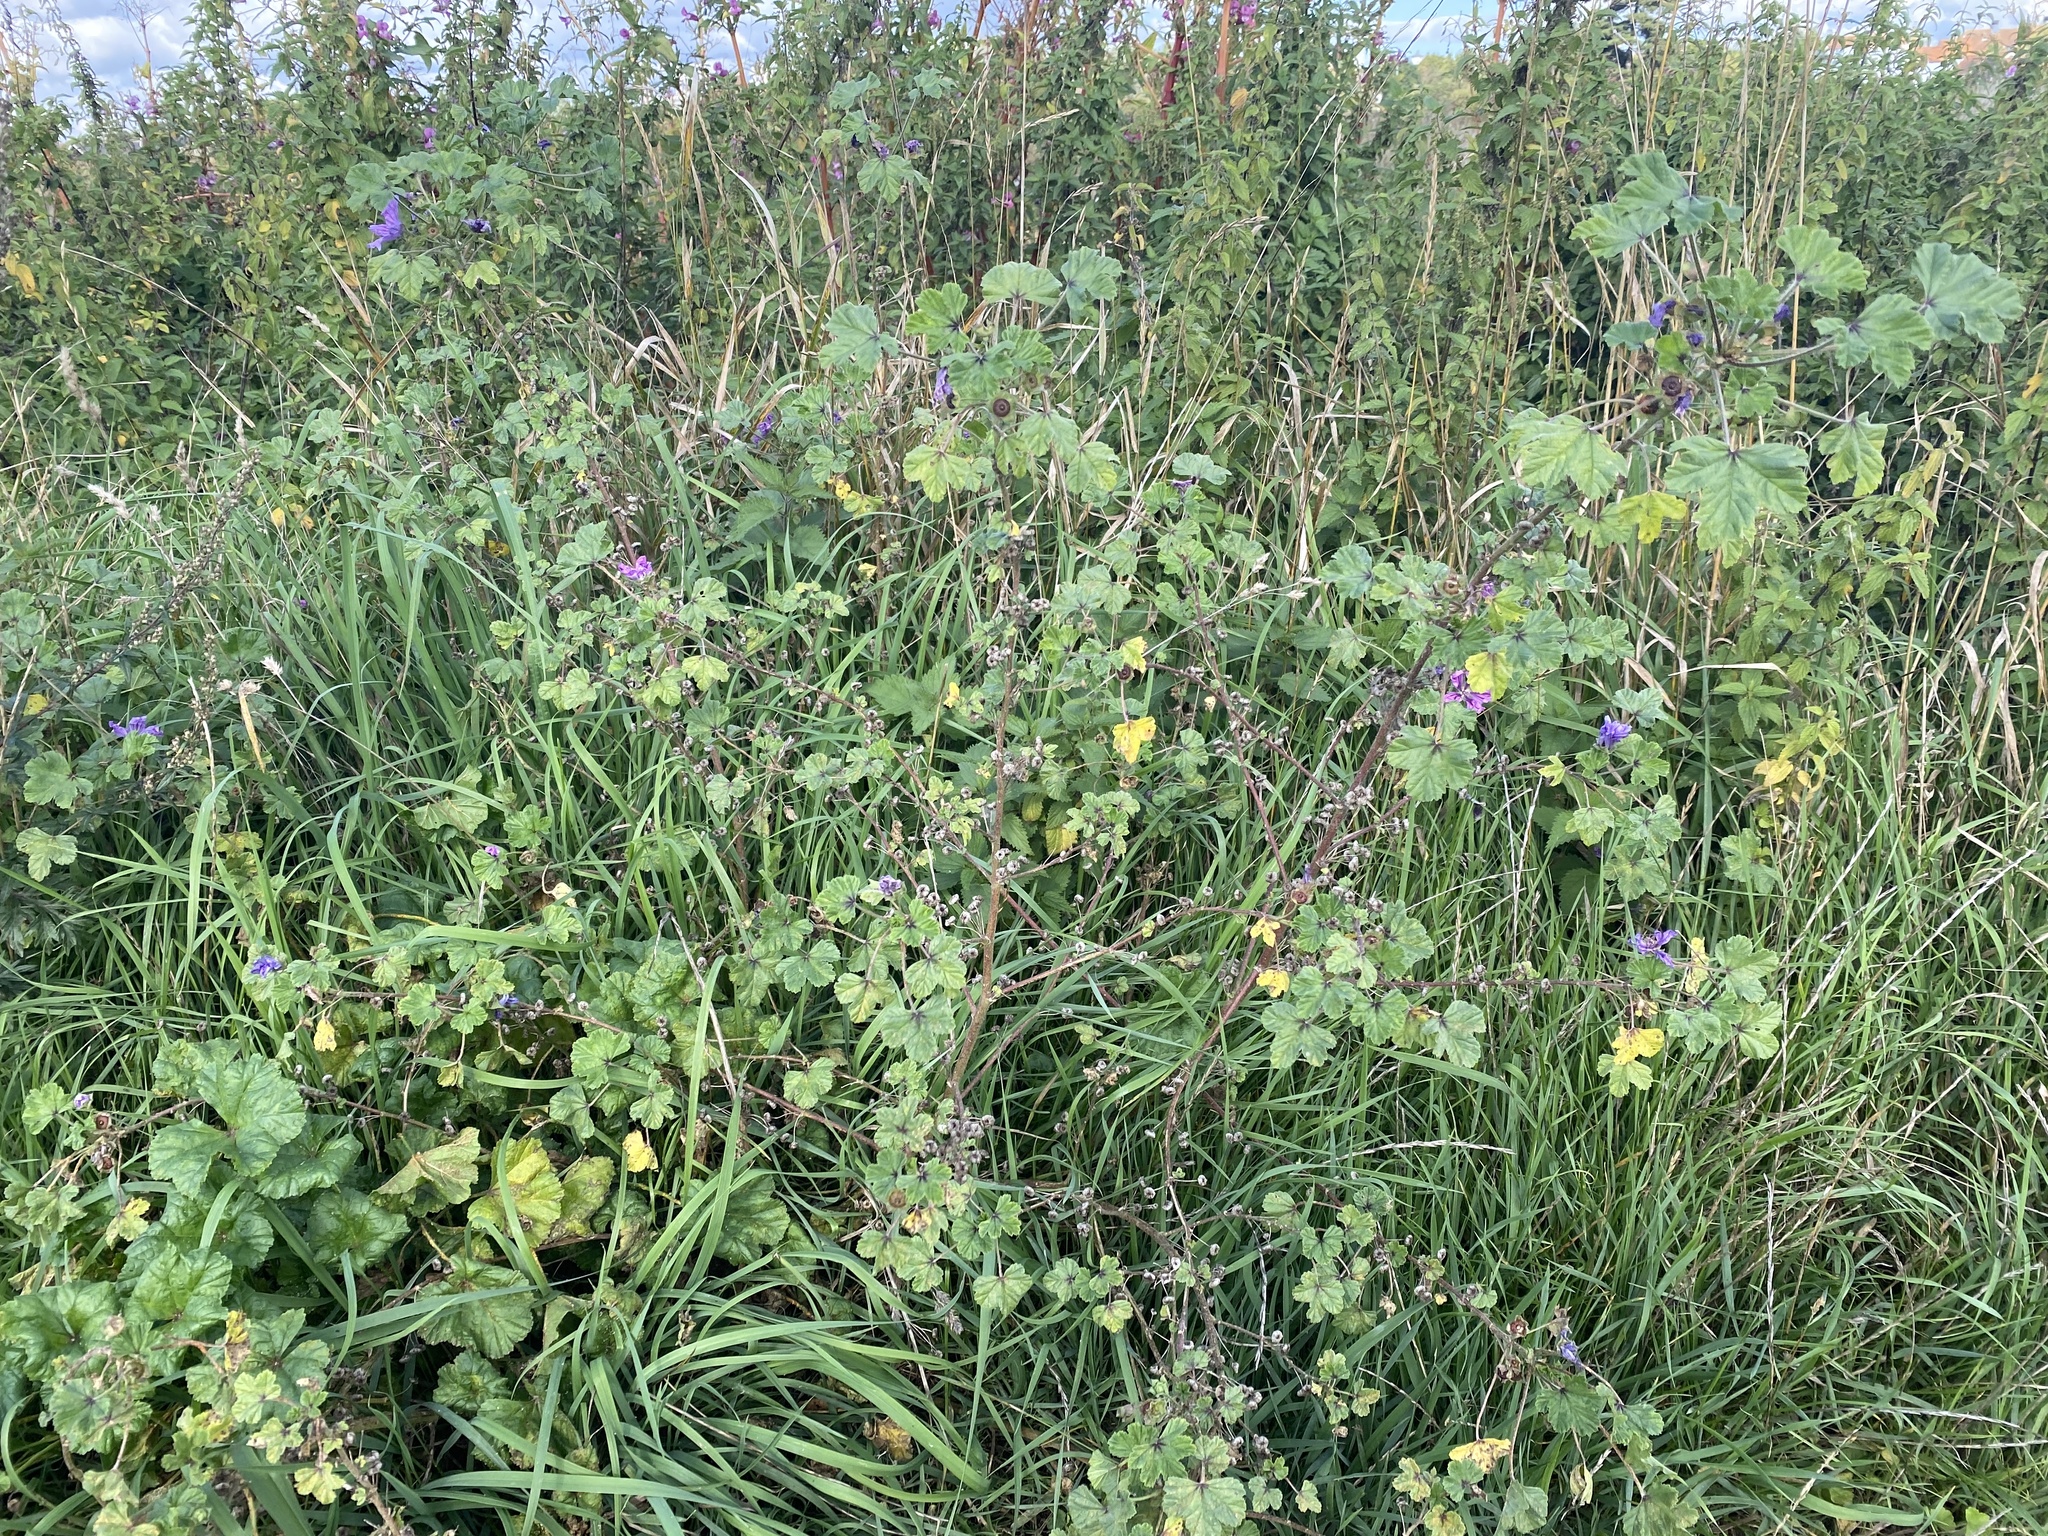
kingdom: Plantae
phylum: Tracheophyta
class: Magnoliopsida
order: Malvales
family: Malvaceae
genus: Malva
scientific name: Malva sylvestris
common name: Common mallow
